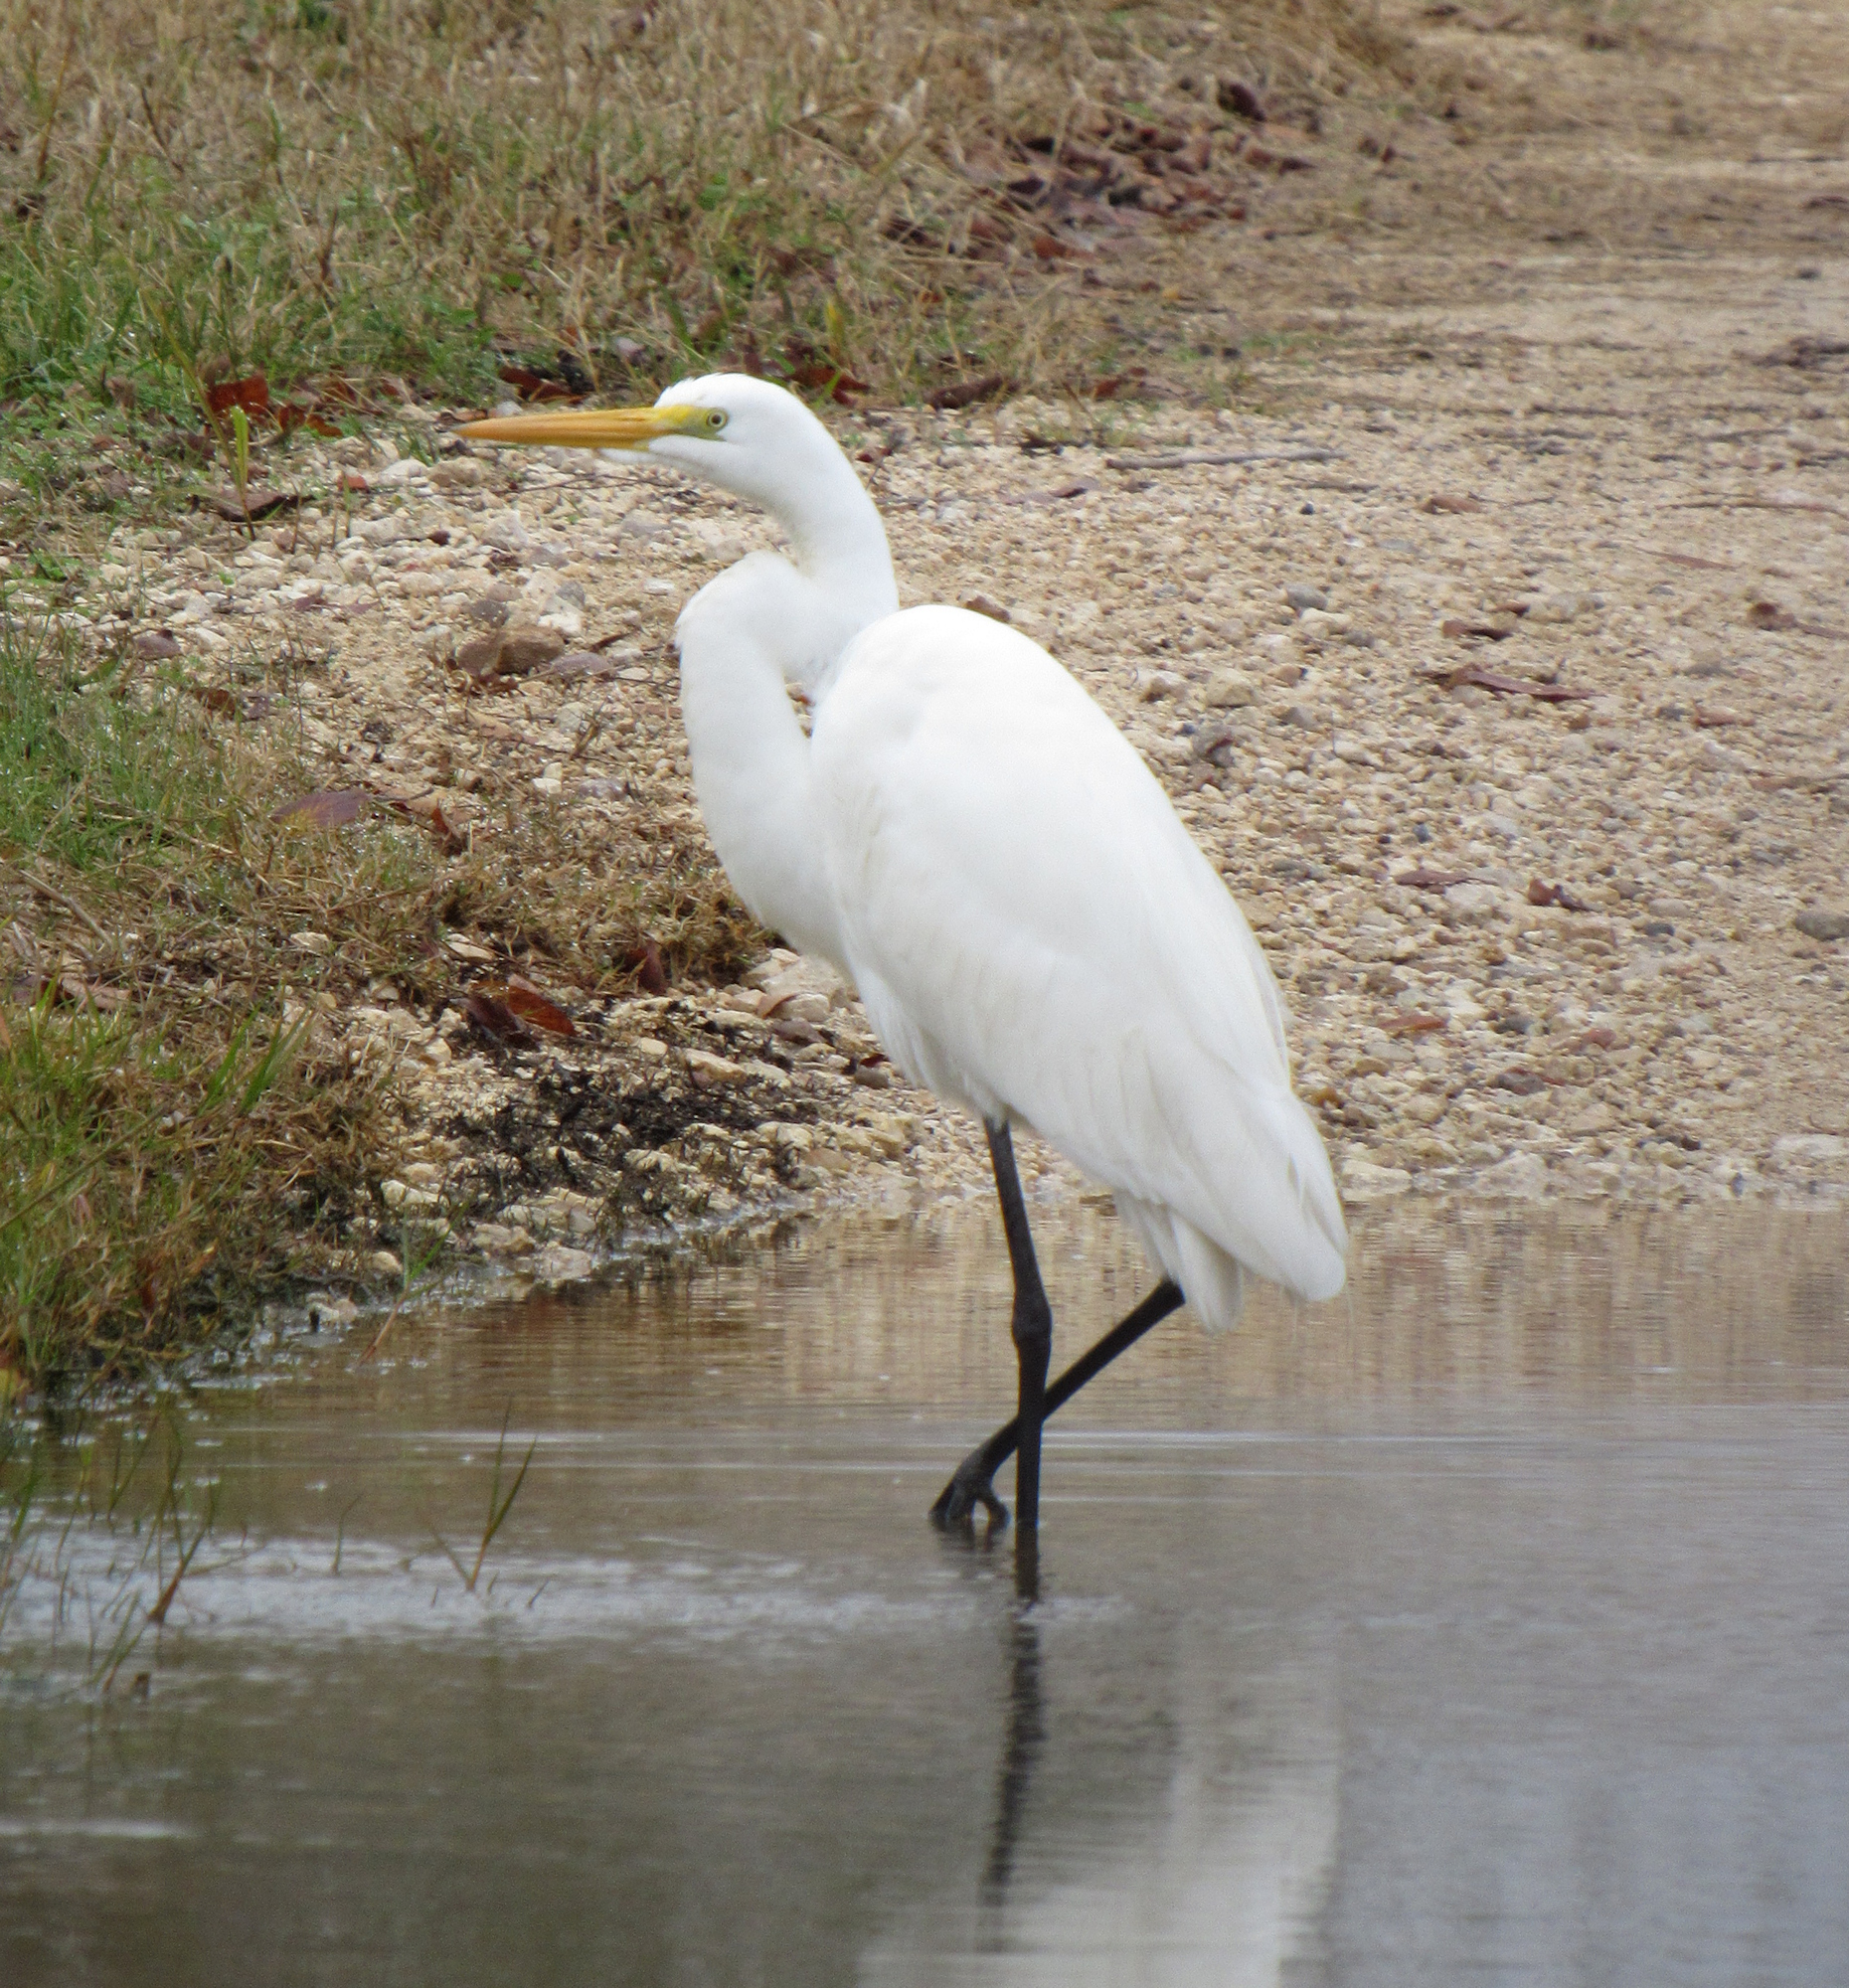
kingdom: Animalia
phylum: Chordata
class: Aves
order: Pelecaniformes
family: Ardeidae
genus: Ardea
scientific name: Ardea alba
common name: Great egret
